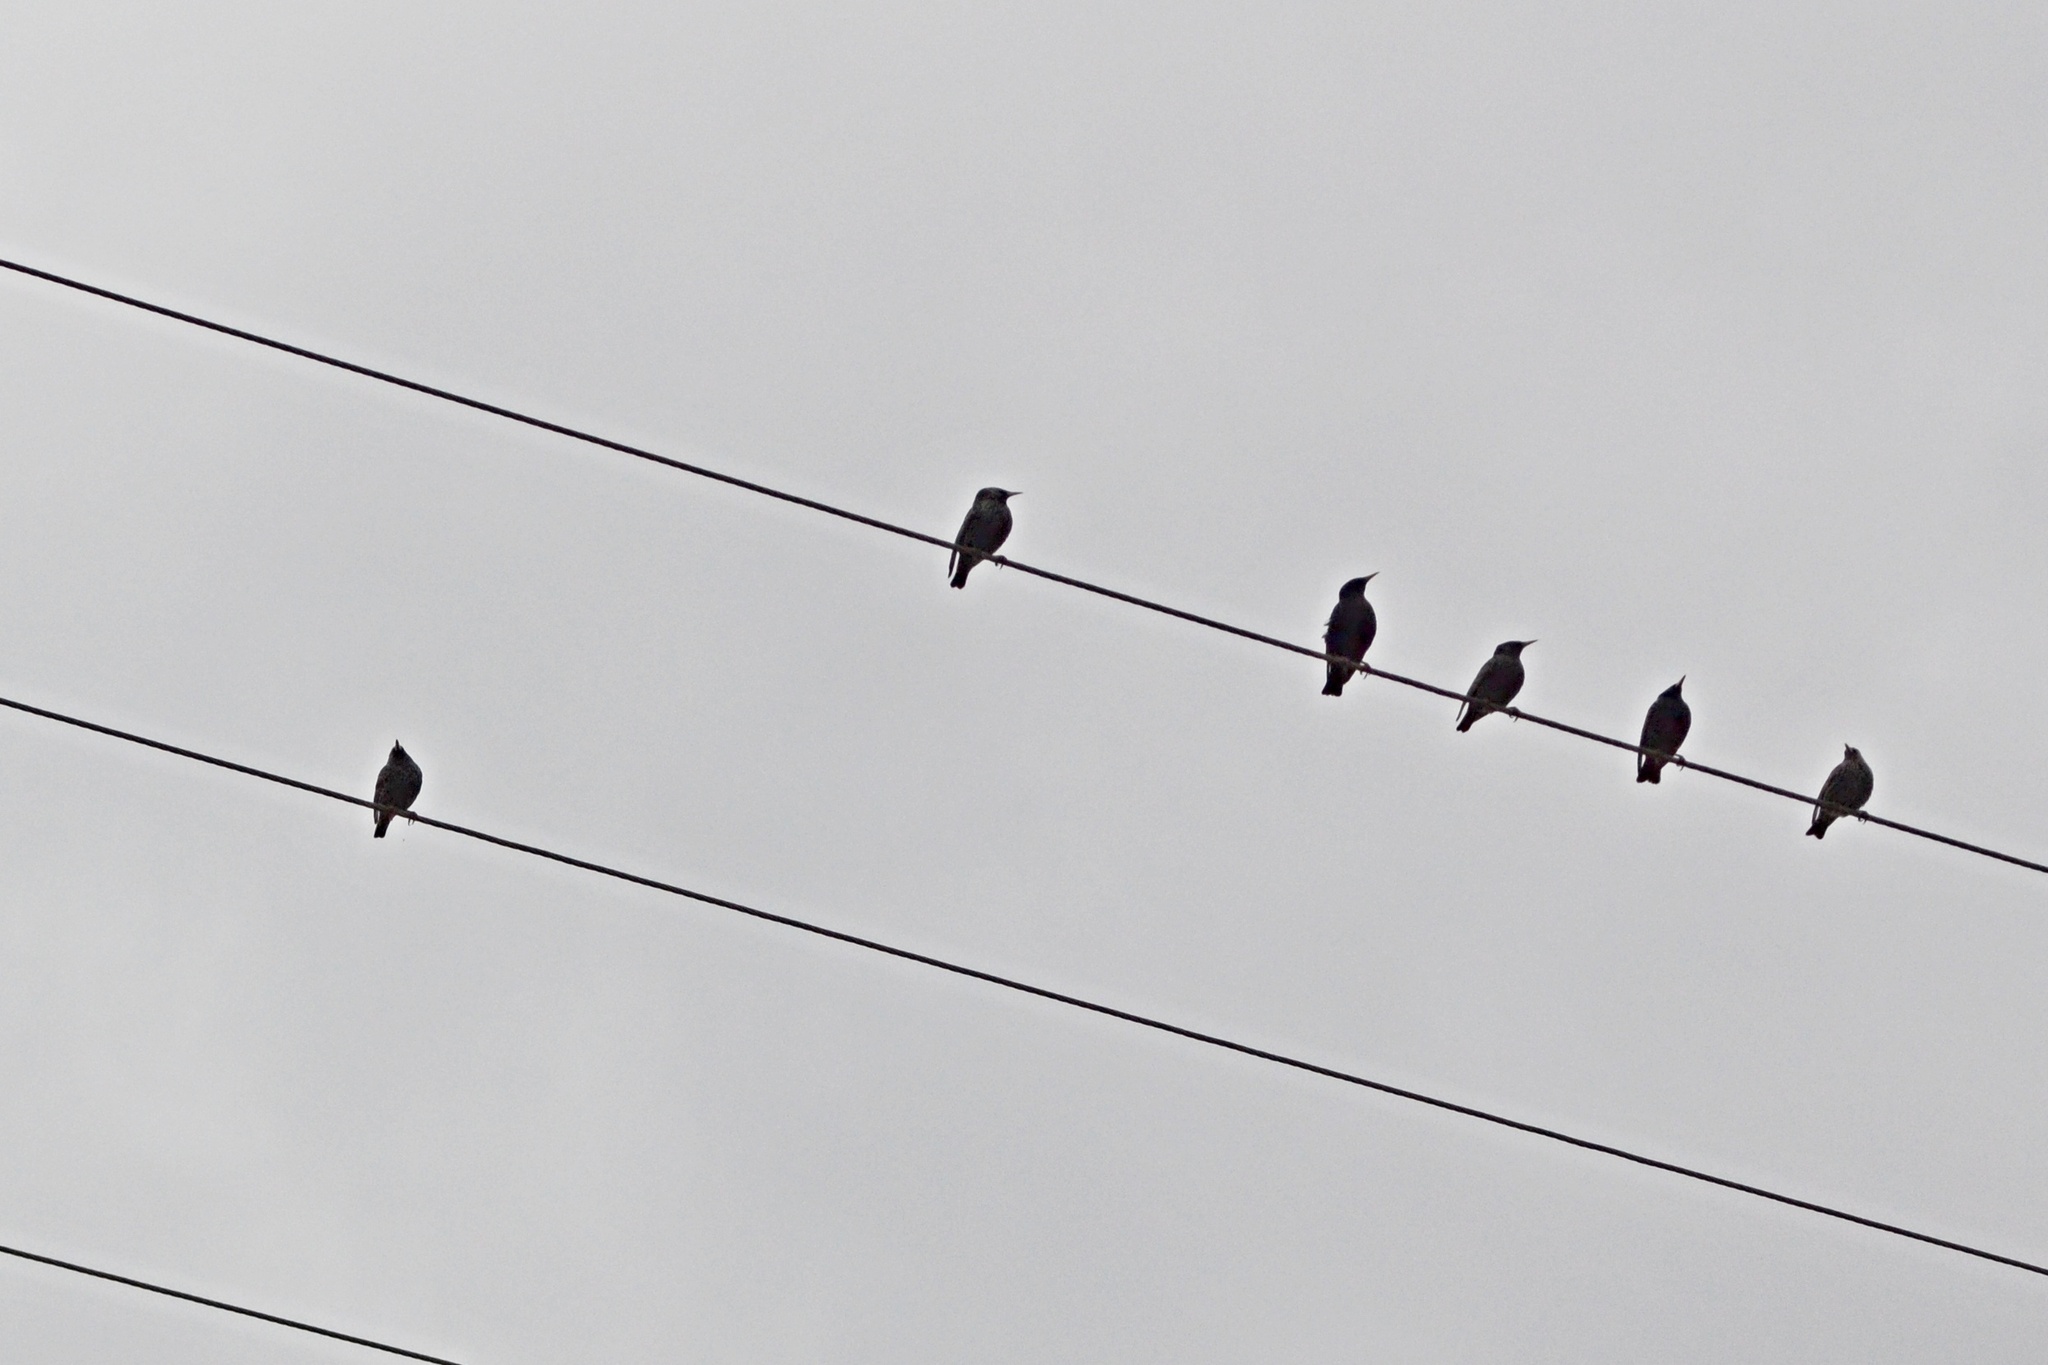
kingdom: Animalia
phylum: Chordata
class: Aves
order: Passeriformes
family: Sturnidae
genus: Sturnus
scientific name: Sturnus vulgaris
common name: Common starling
